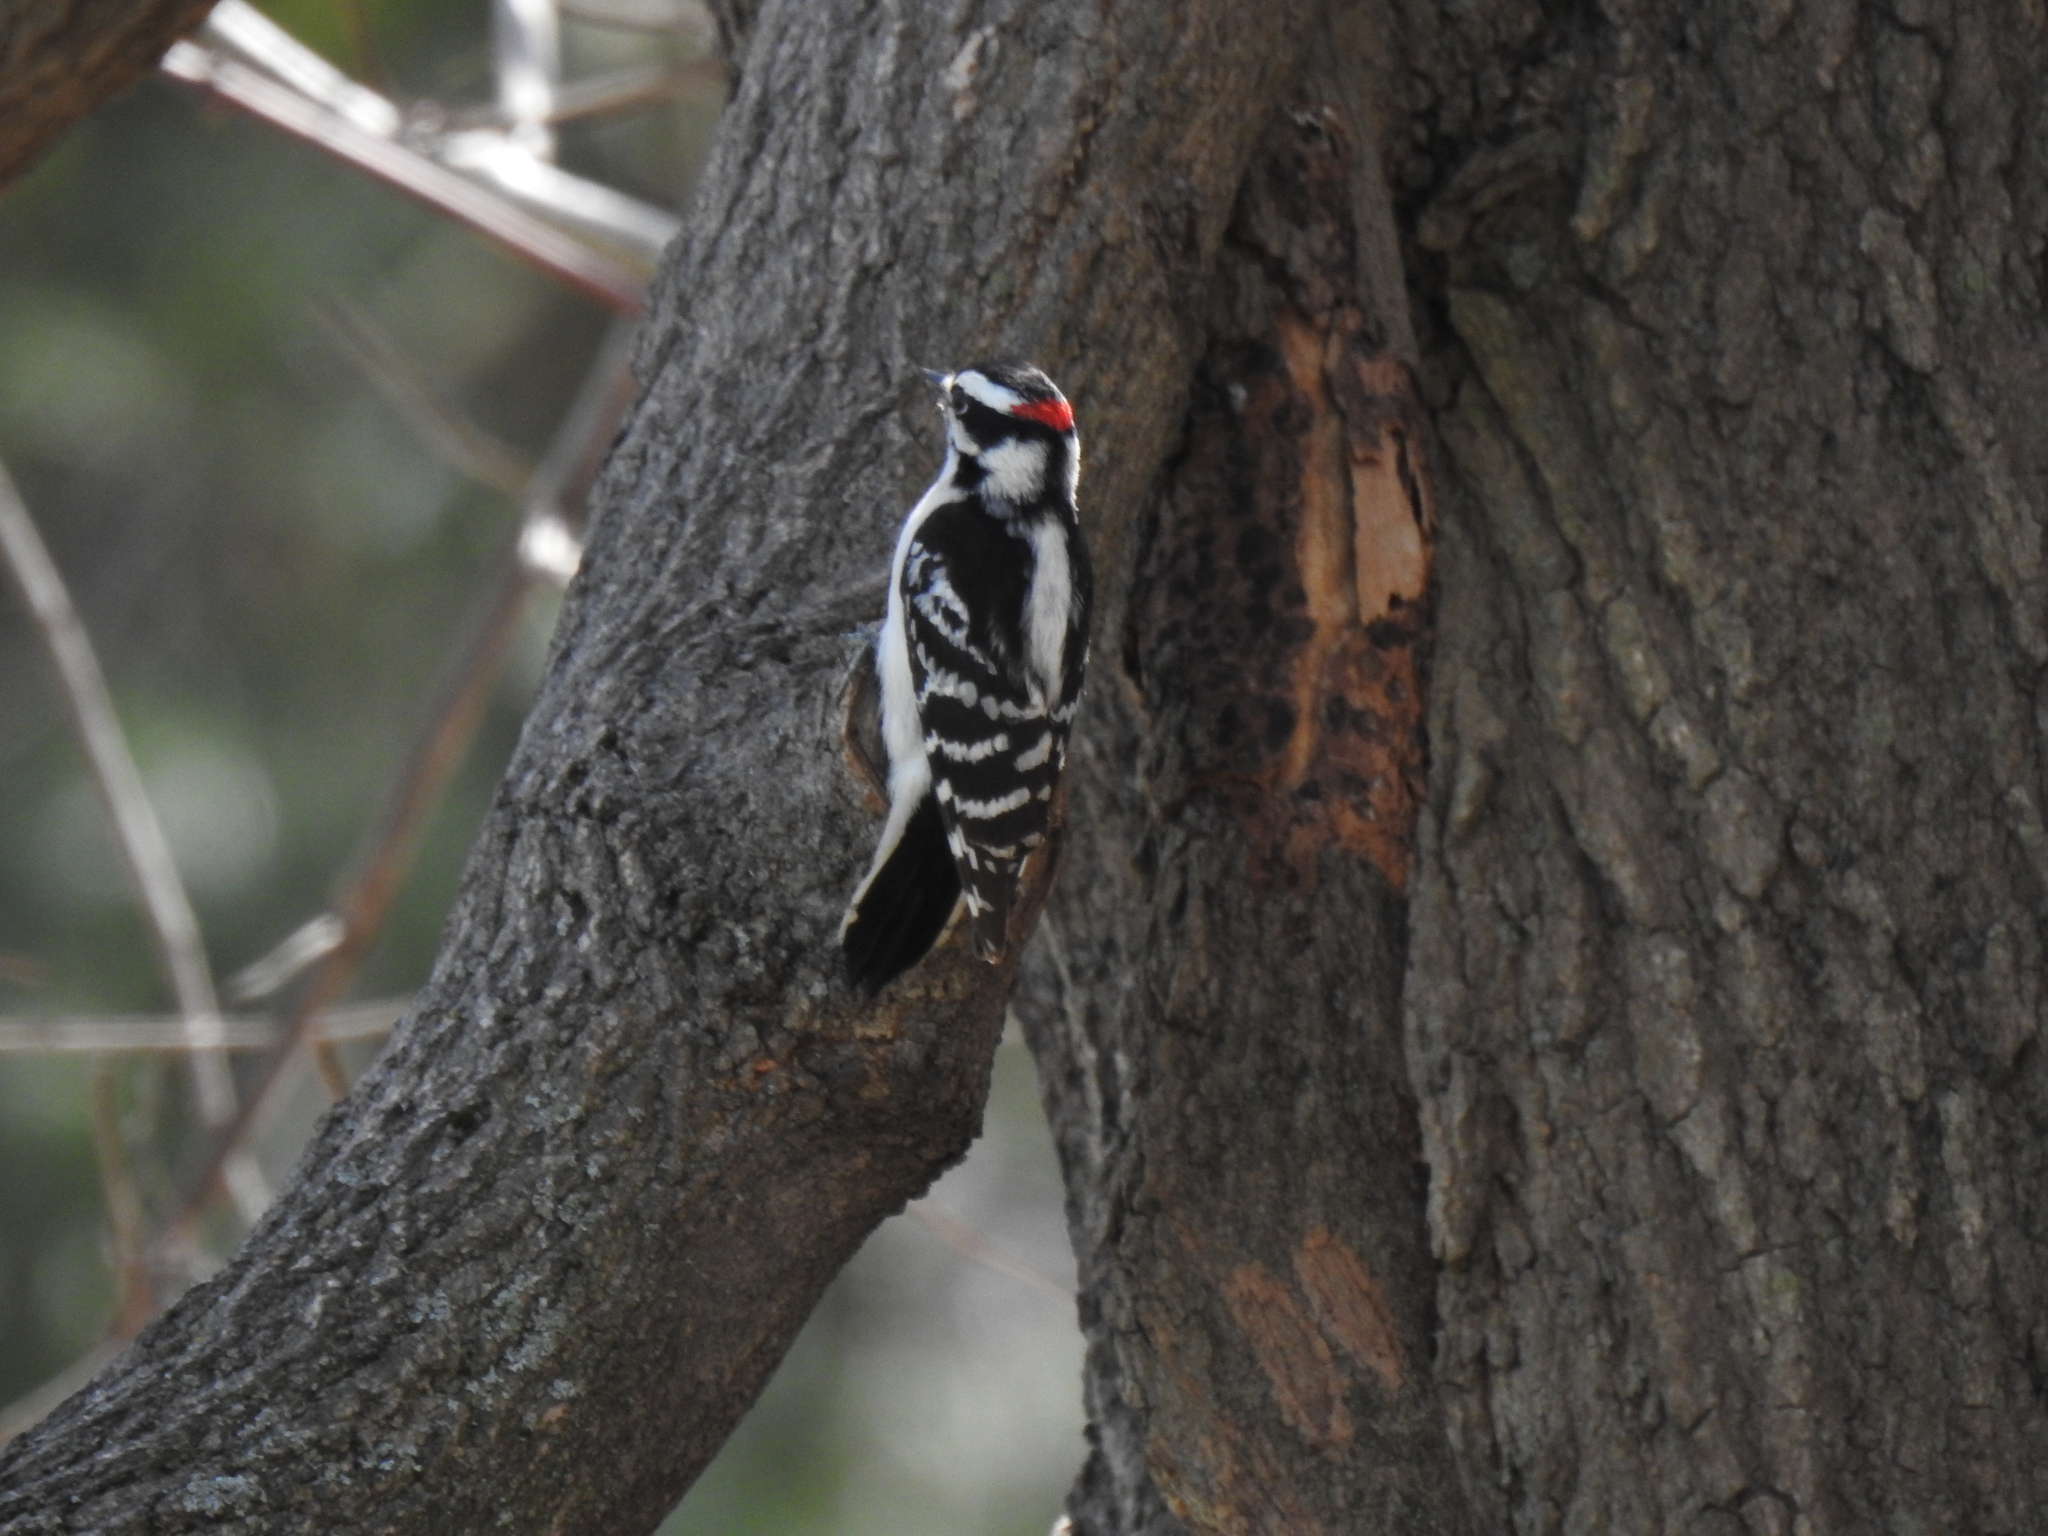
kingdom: Animalia
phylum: Chordata
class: Aves
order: Piciformes
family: Picidae
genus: Dryobates
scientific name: Dryobates pubescens
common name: Downy woodpecker
